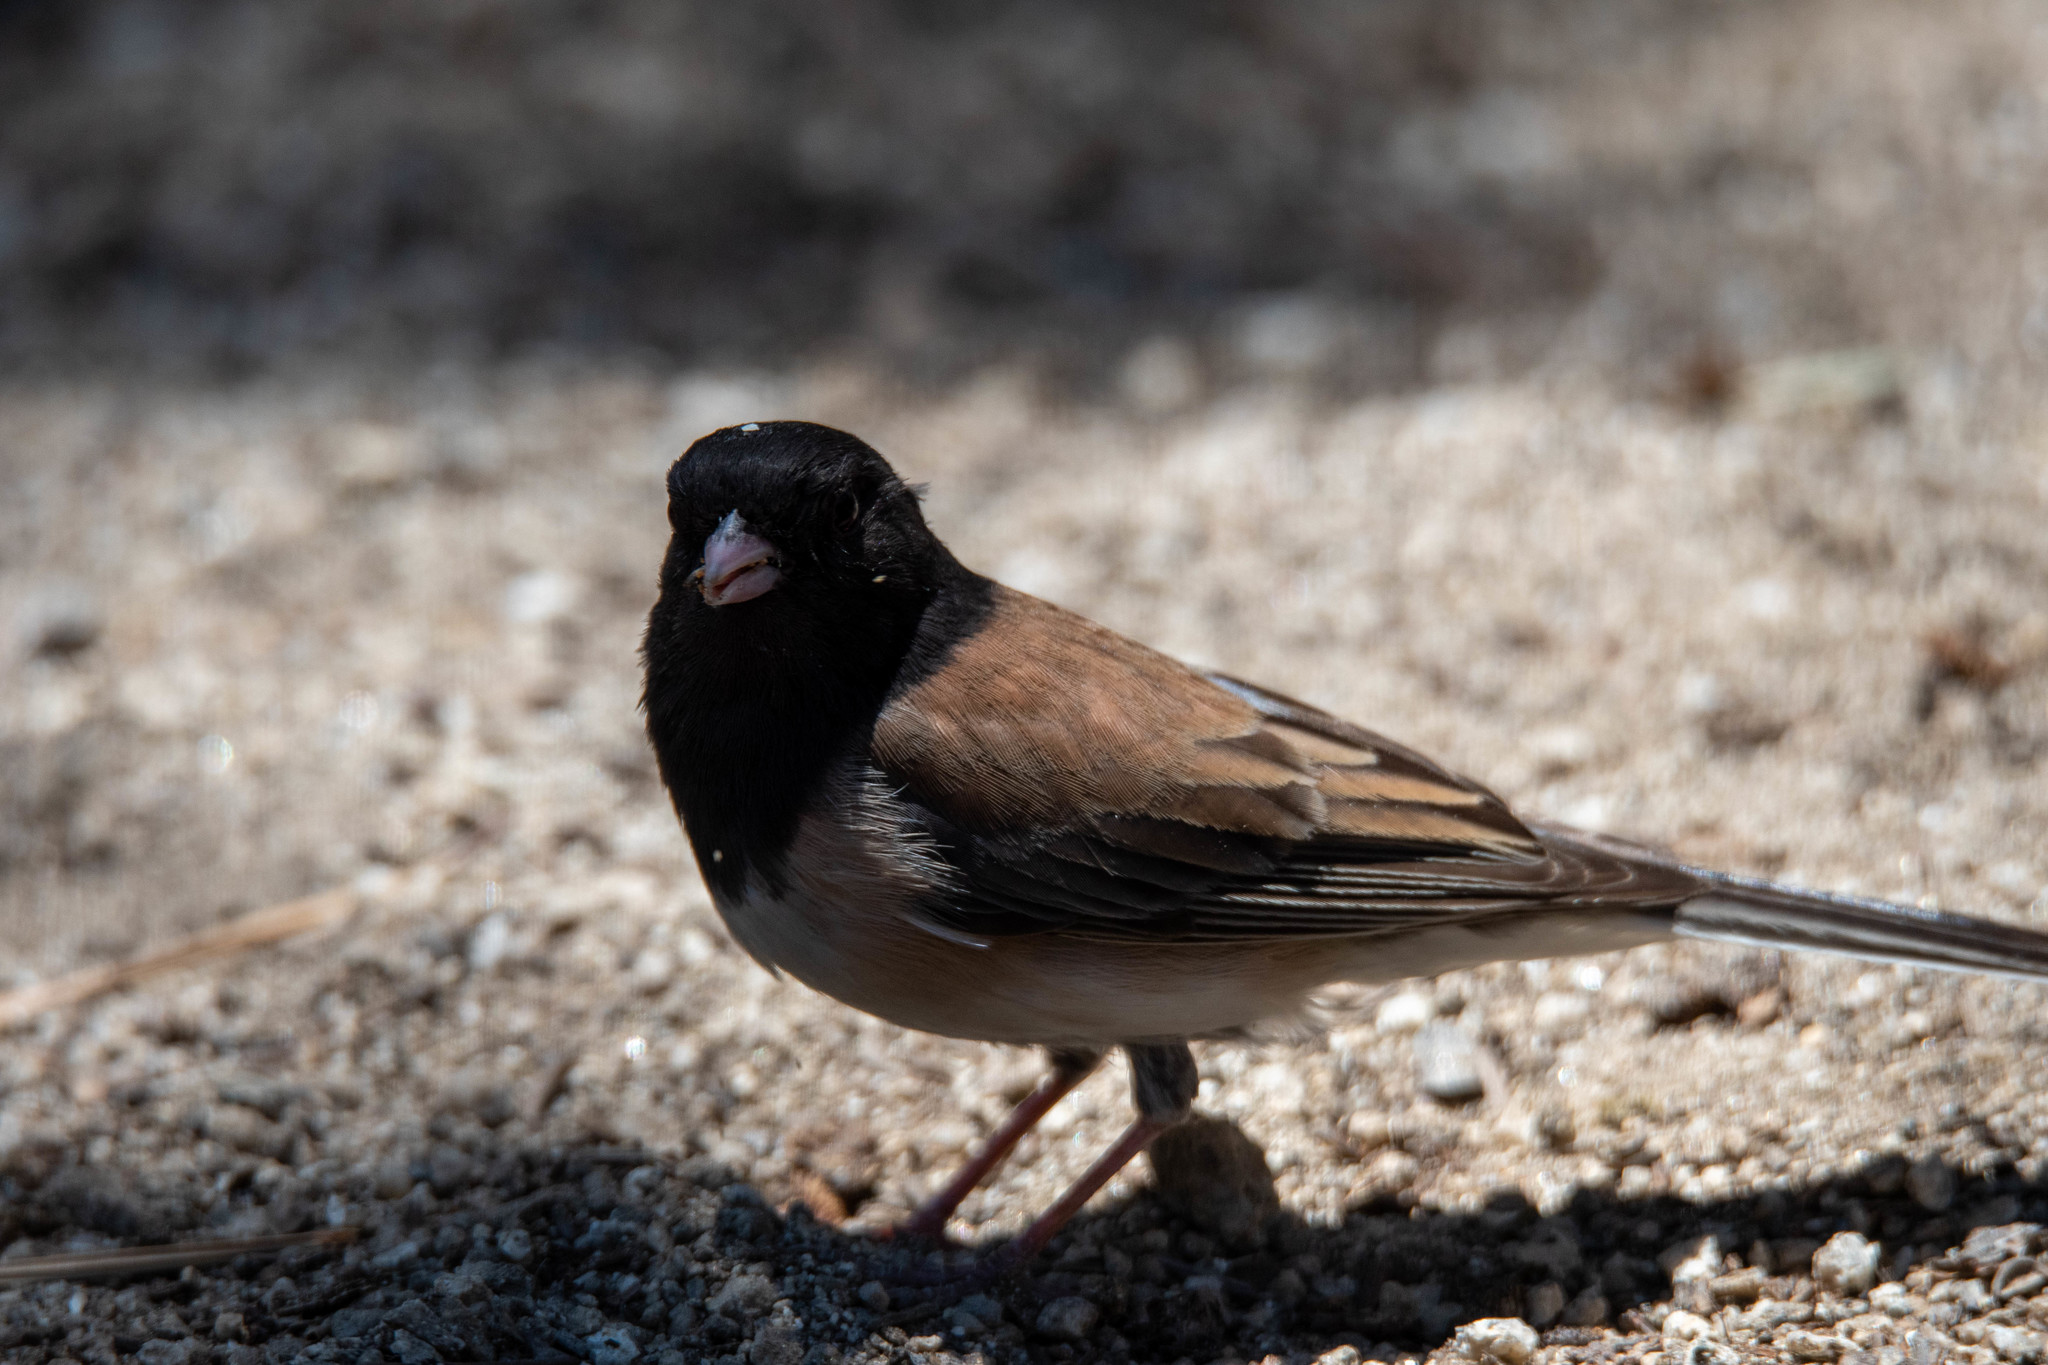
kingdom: Animalia
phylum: Chordata
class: Aves
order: Passeriformes
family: Passerellidae
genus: Junco
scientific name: Junco hyemalis
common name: Dark-eyed junco
